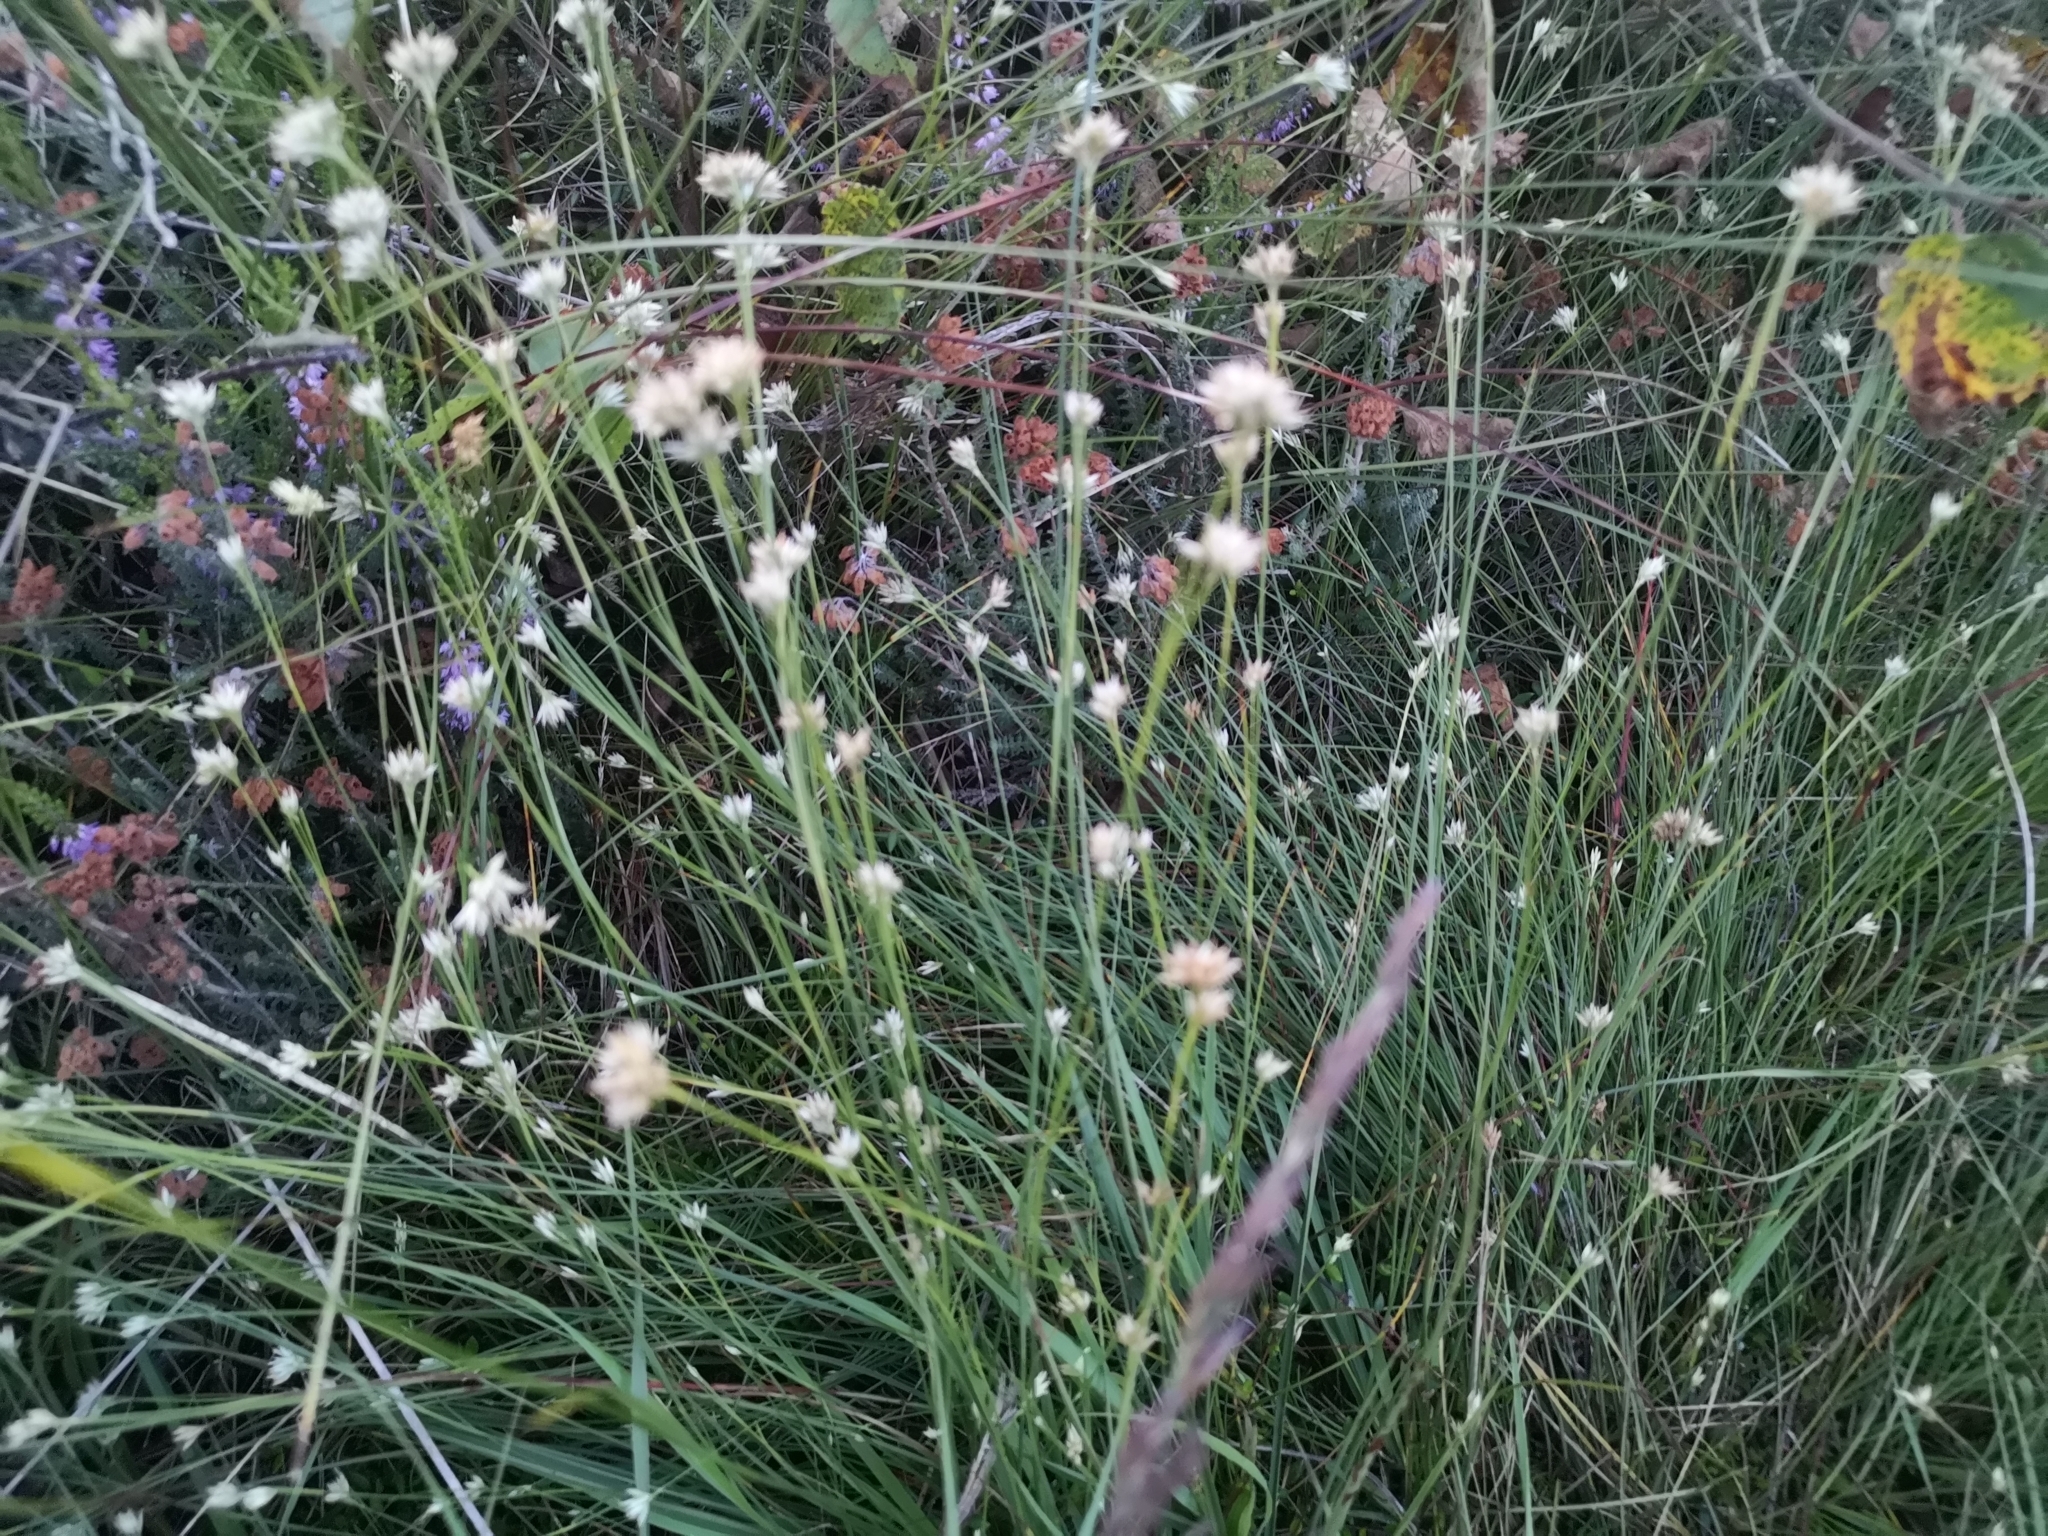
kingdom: Plantae
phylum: Tracheophyta
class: Liliopsida
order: Poales
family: Cyperaceae
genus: Rhynchospora
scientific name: Rhynchospora alba
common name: White beak-sedge
